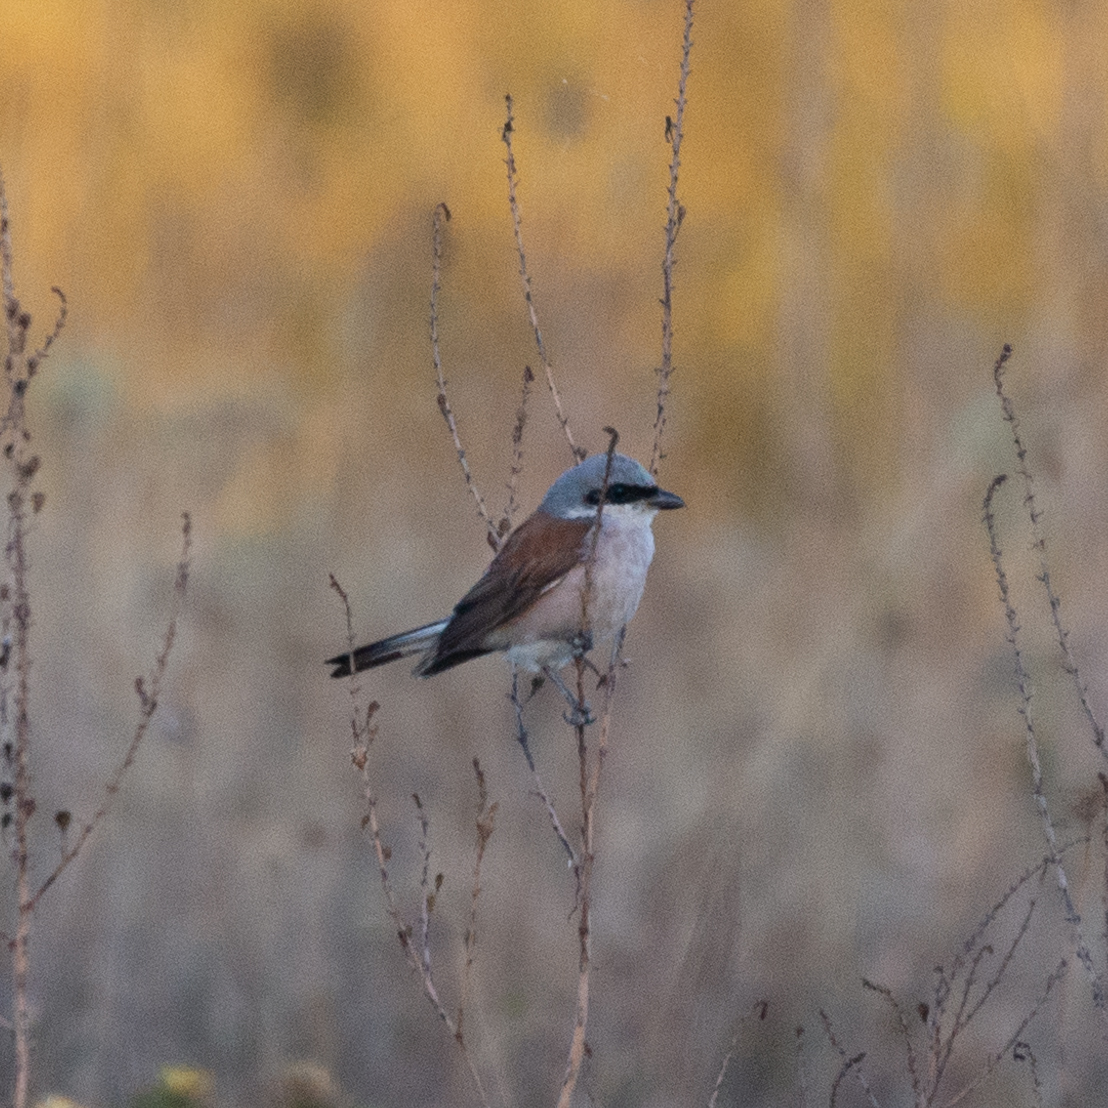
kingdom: Animalia
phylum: Chordata
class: Aves
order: Passeriformes
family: Laniidae
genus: Lanius
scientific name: Lanius collurio
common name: Red-backed shrike
